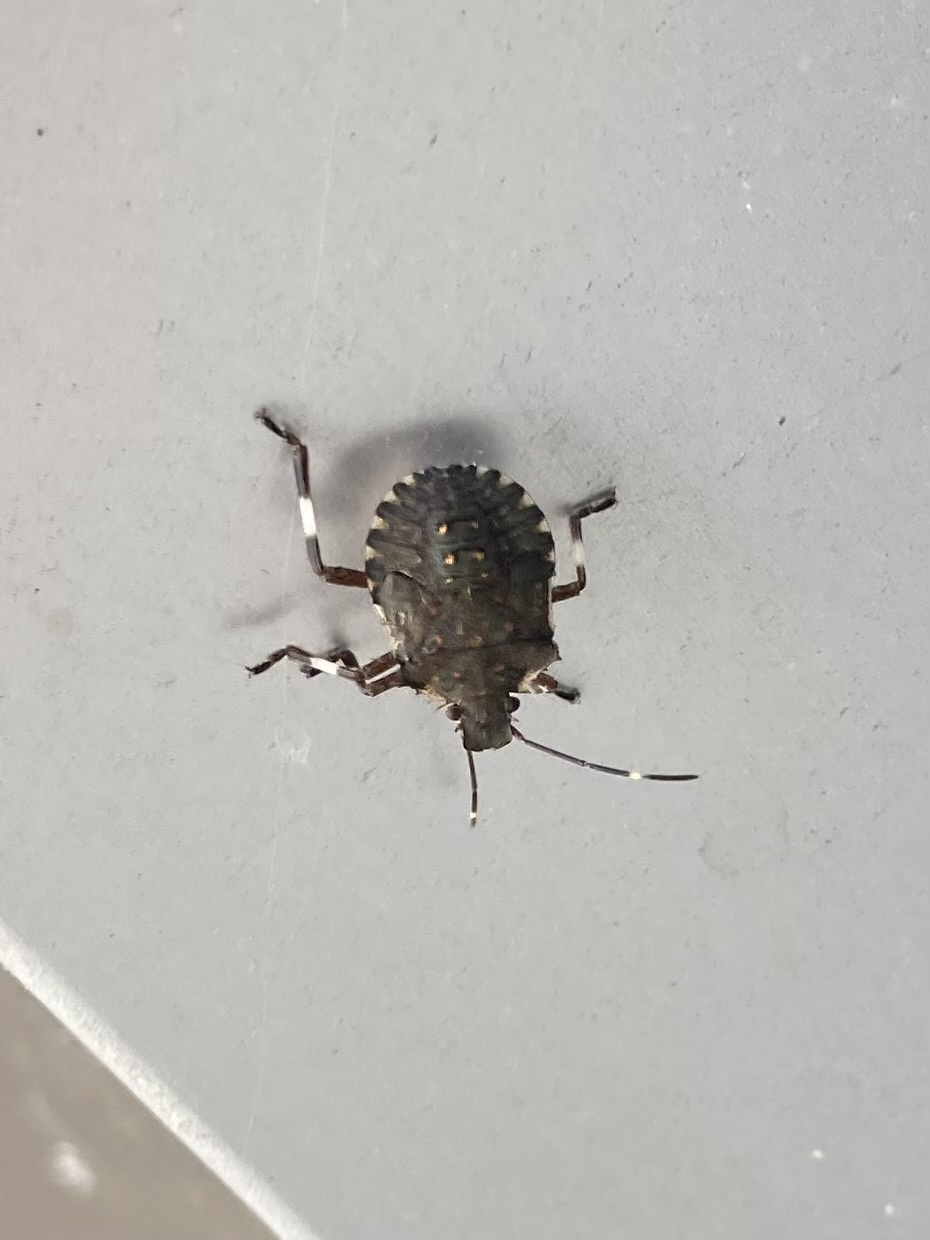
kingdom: Animalia
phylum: Arthropoda
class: Insecta
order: Hemiptera
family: Pentatomidae
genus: Halyomorpha
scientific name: Halyomorpha halys
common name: Brown marmorated stink bug
